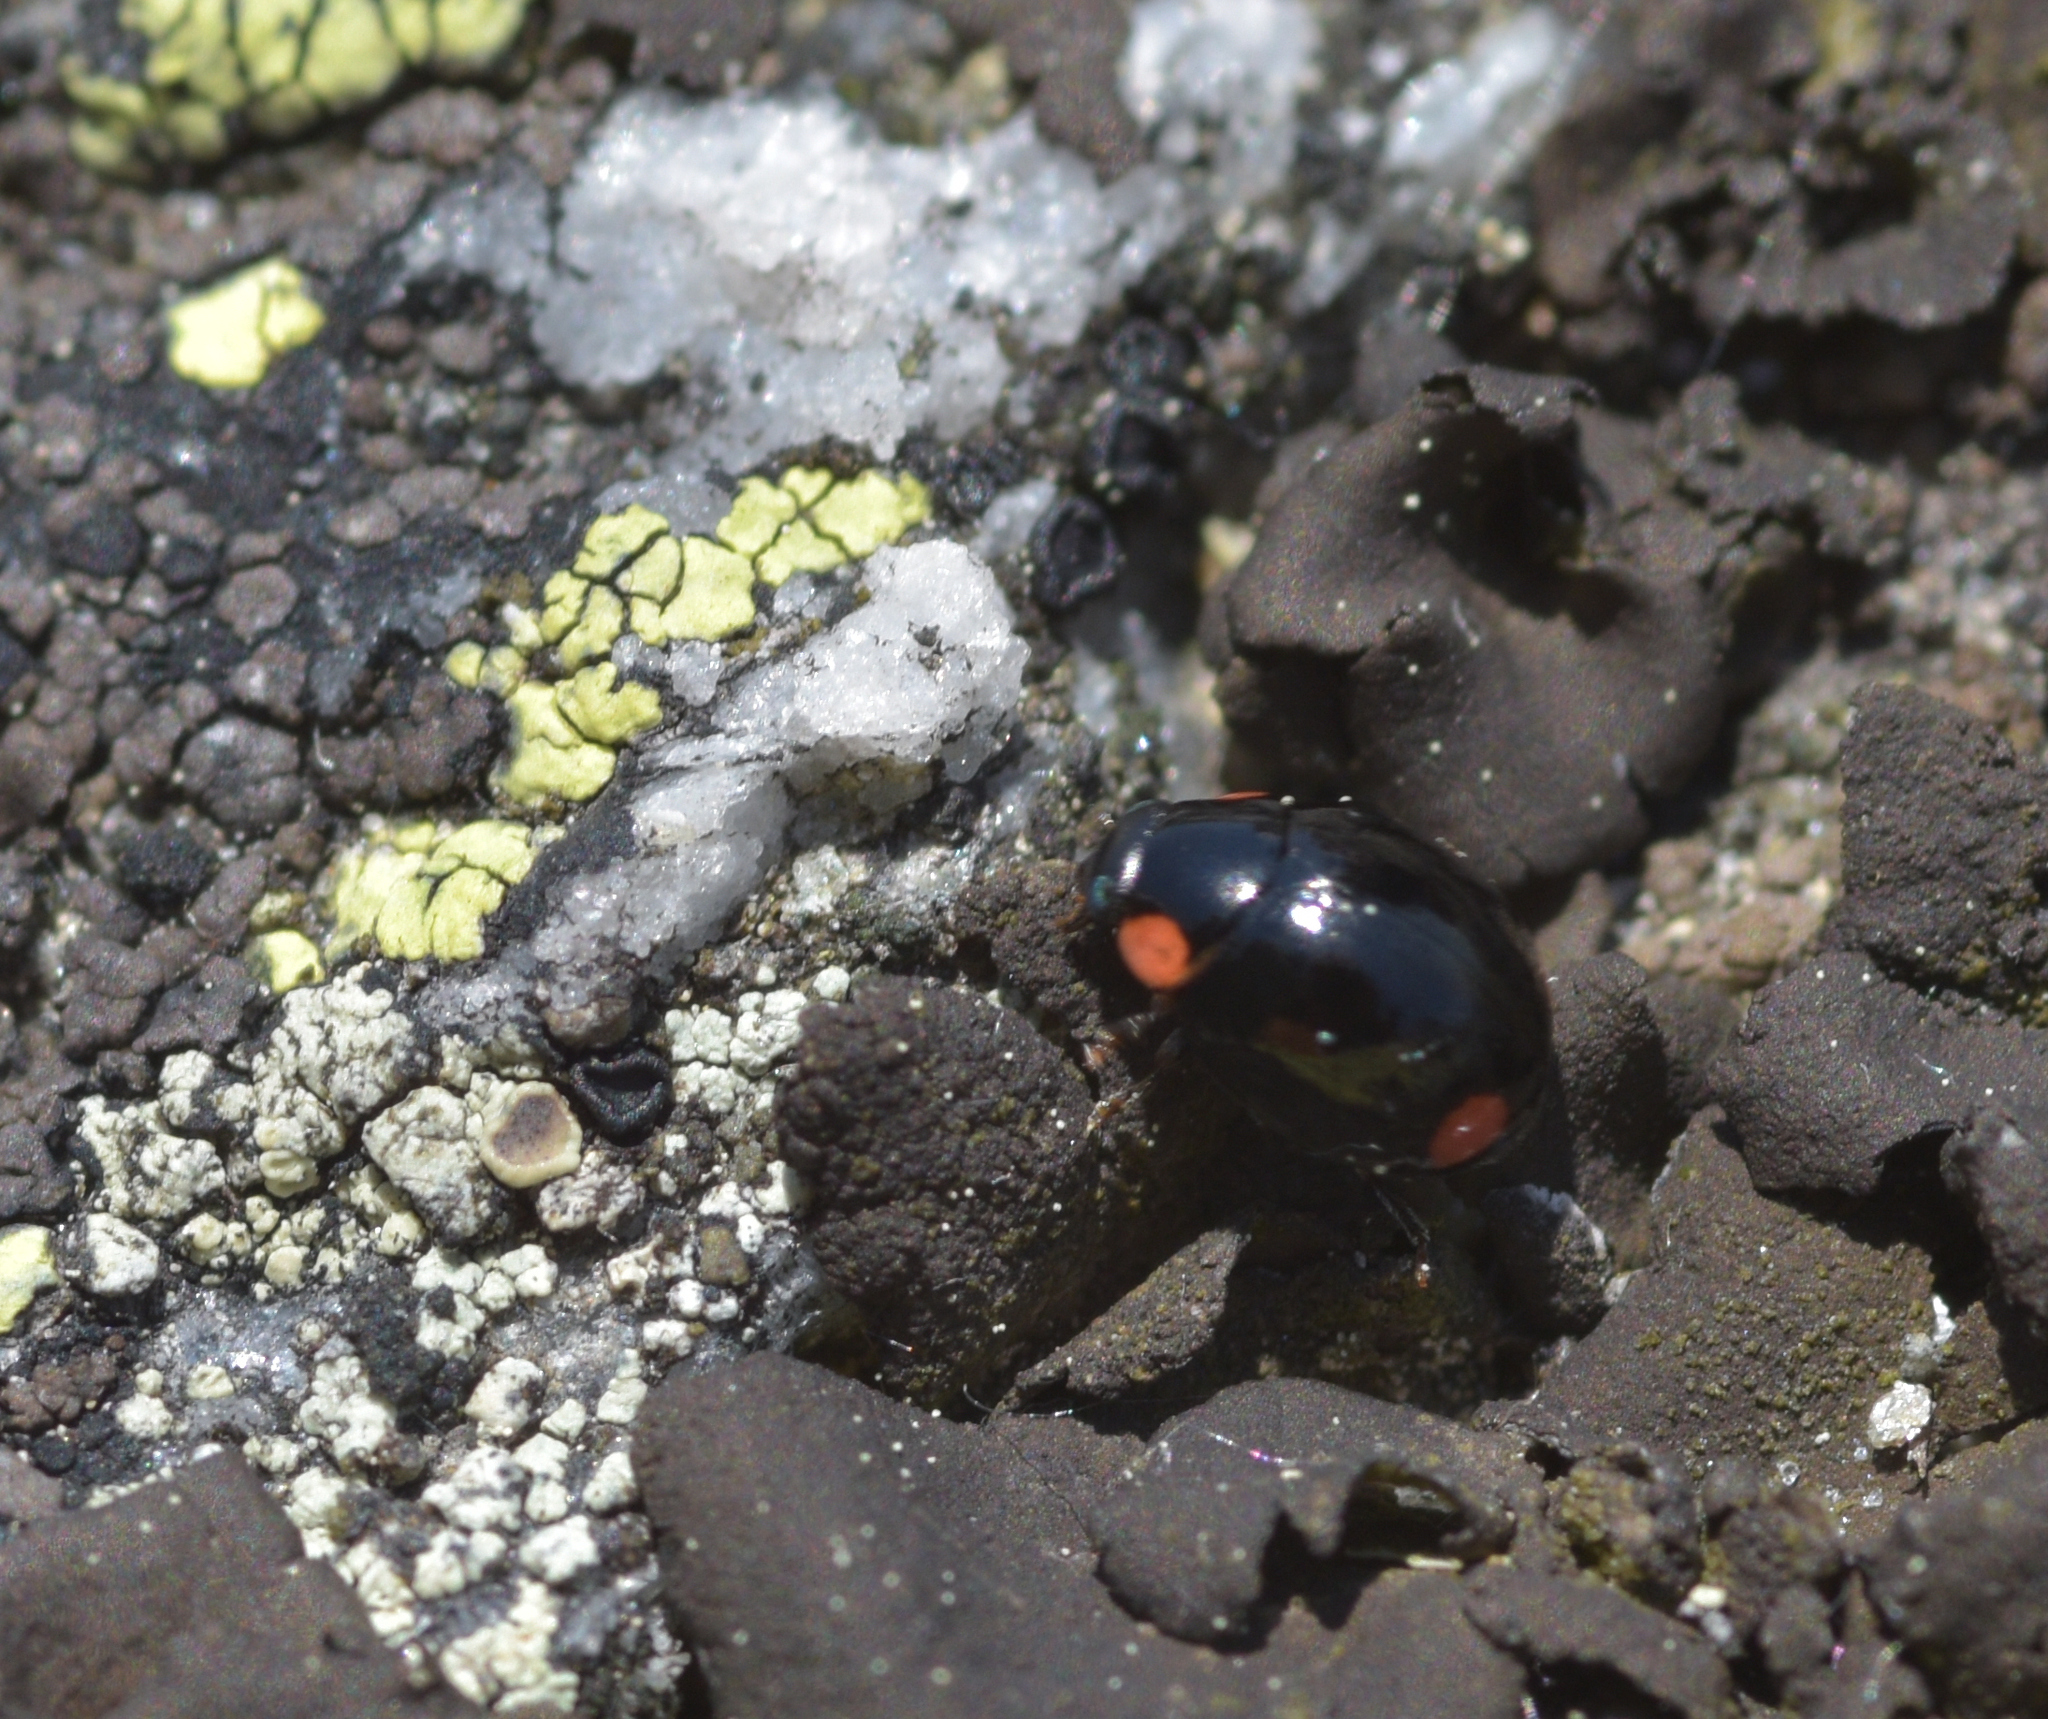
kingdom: Animalia
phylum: Arthropoda
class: Insecta
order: Coleoptera
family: Coccinellidae
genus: Hyperaspis
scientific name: Hyperaspis bigeminata
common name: Bigeminate sigil lady beetle
